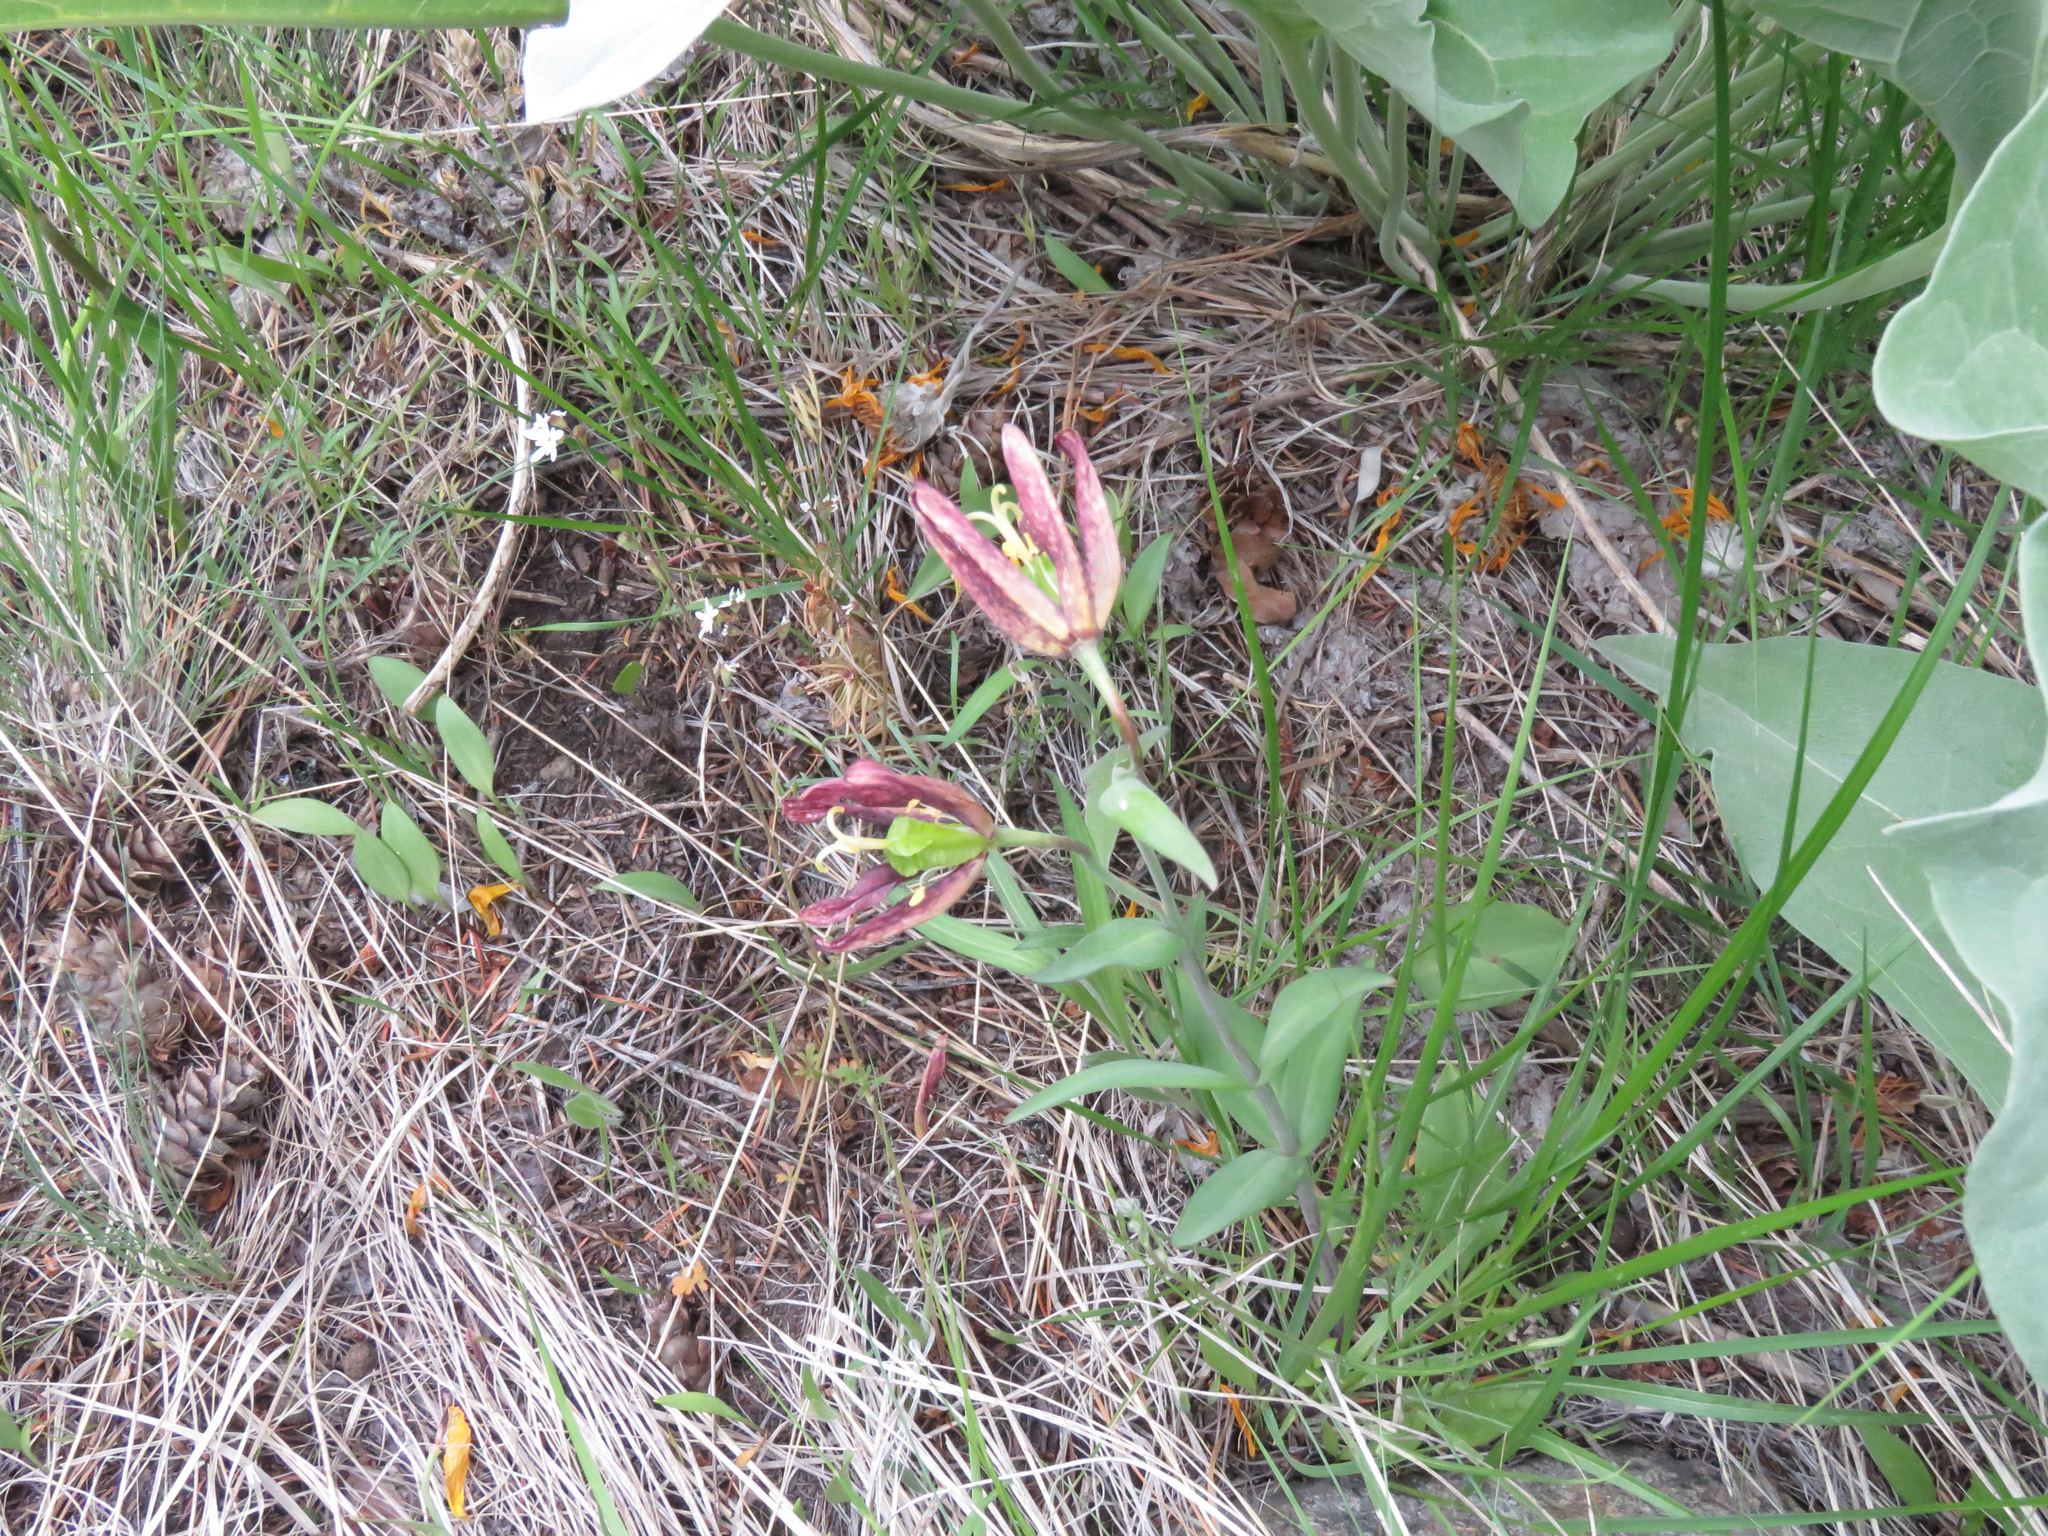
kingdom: Plantae
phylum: Tracheophyta
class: Liliopsida
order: Liliales
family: Liliaceae
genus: Fritillaria
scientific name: Fritillaria affinis
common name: Ojai fritillary
